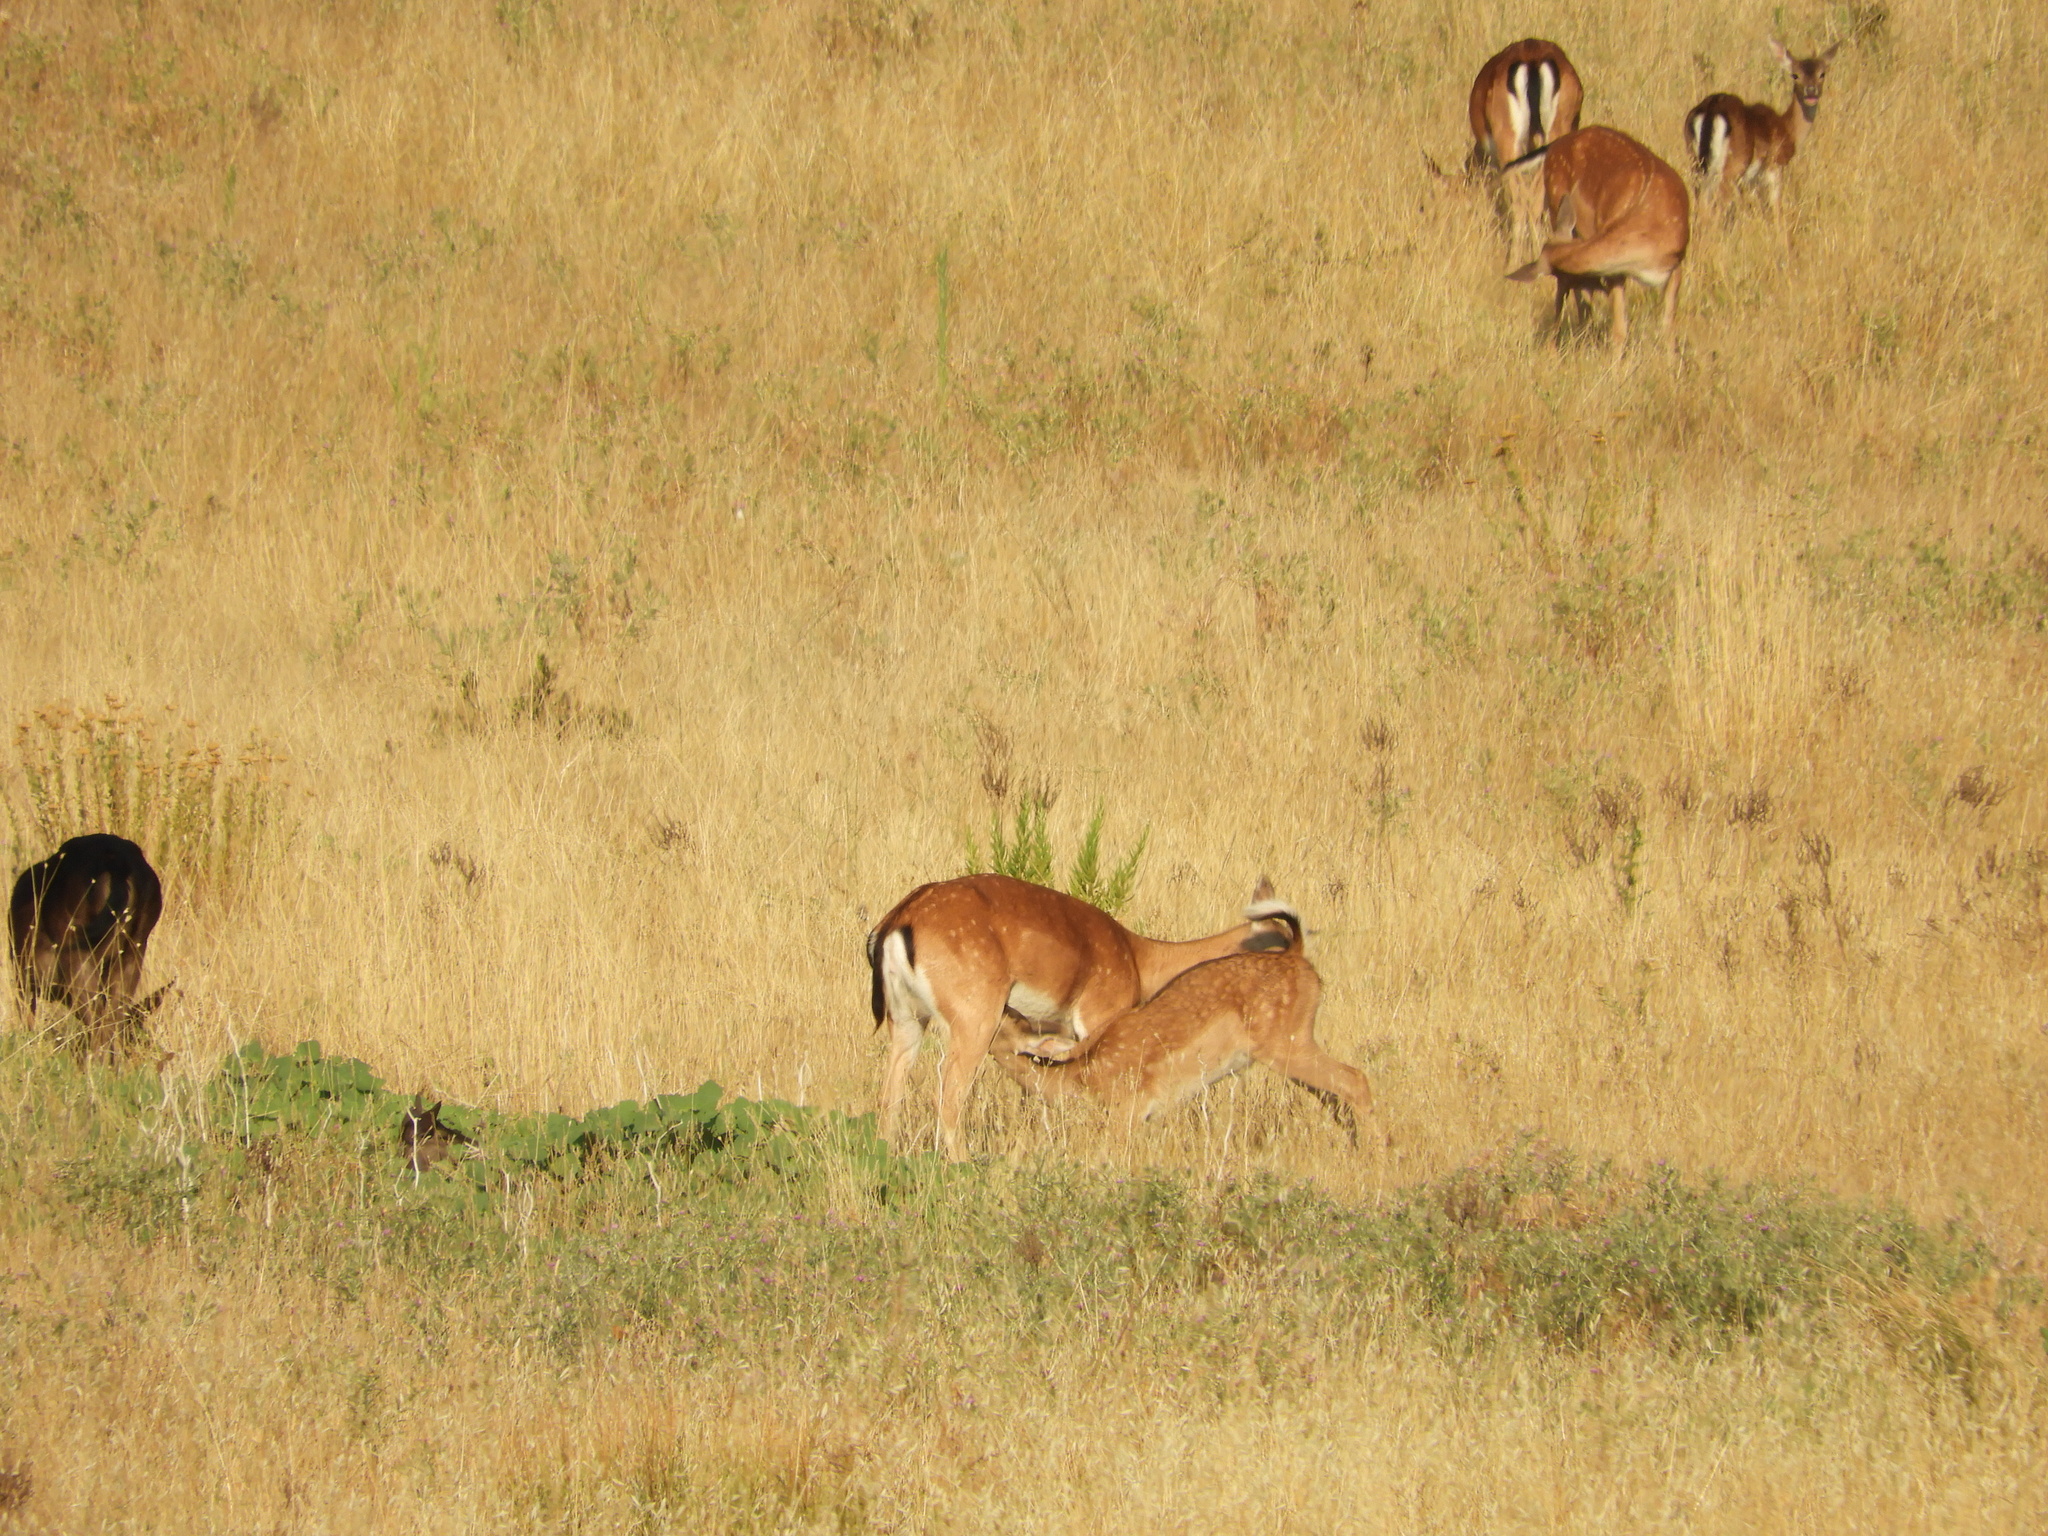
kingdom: Animalia
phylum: Chordata
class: Mammalia
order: Artiodactyla
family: Cervidae
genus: Dama
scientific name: Dama dama
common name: Fallow deer
